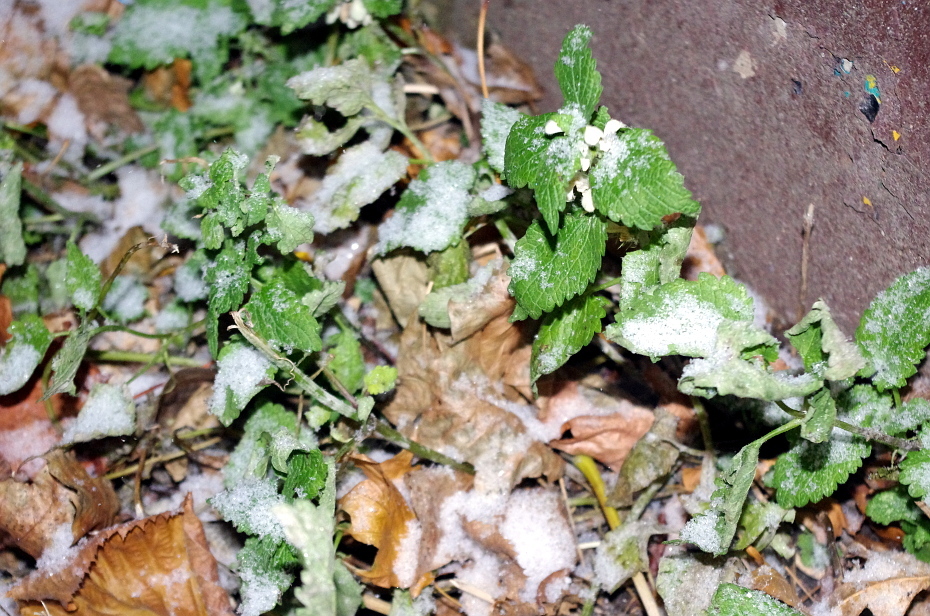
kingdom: Plantae
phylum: Tracheophyta
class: Magnoliopsida
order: Lamiales
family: Lamiaceae
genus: Lamium
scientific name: Lamium album
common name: White dead-nettle
